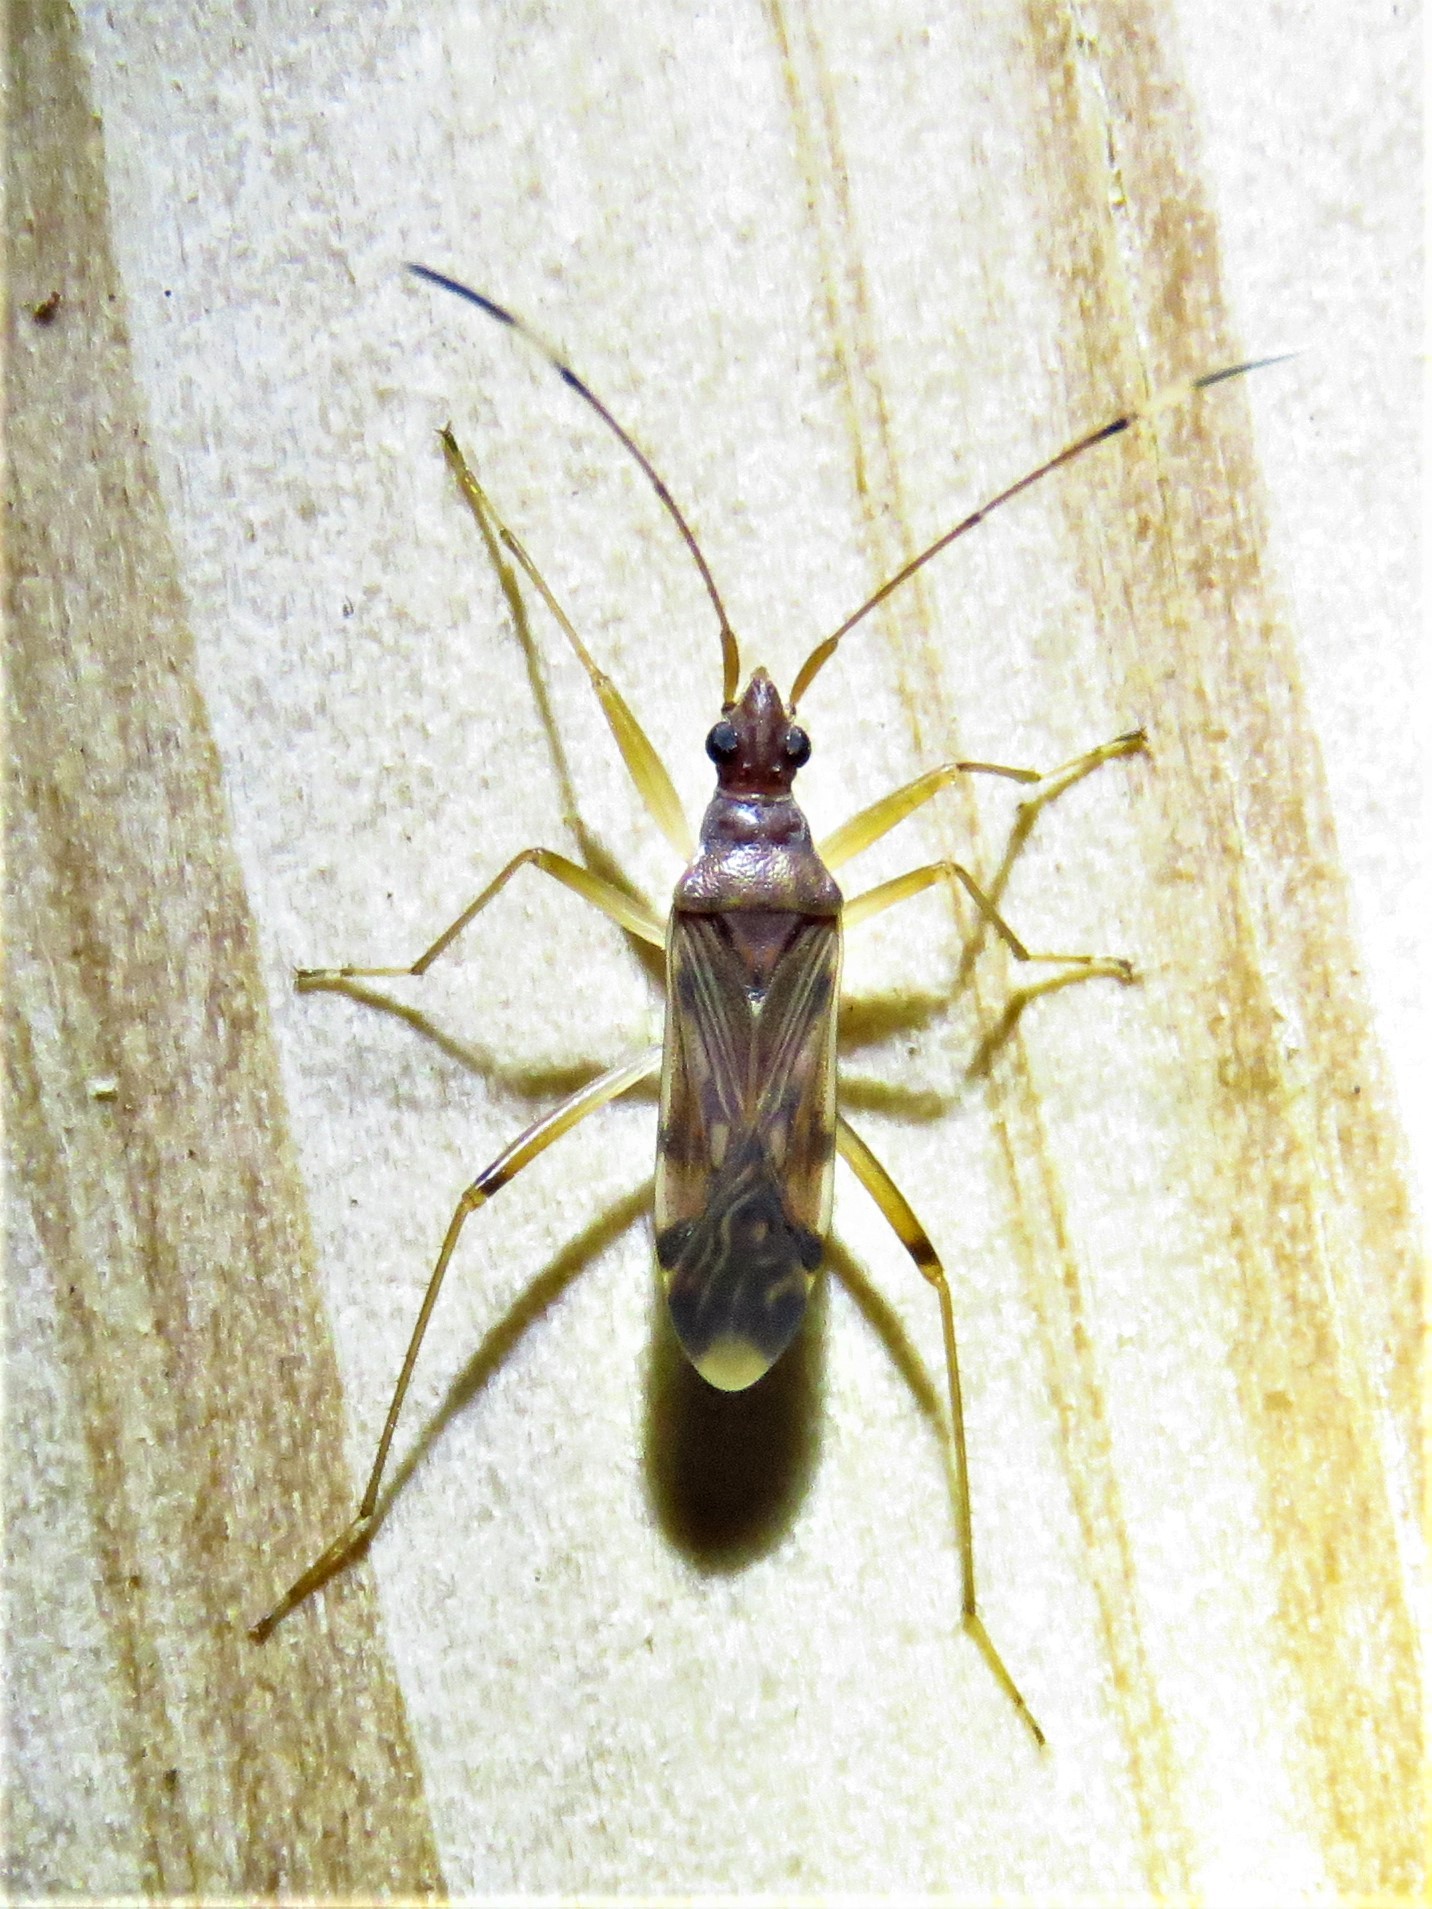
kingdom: Animalia
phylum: Arthropoda
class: Insecta
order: Hemiptera
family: Rhyparochromidae
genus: Ozophora
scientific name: Ozophora depicturata
